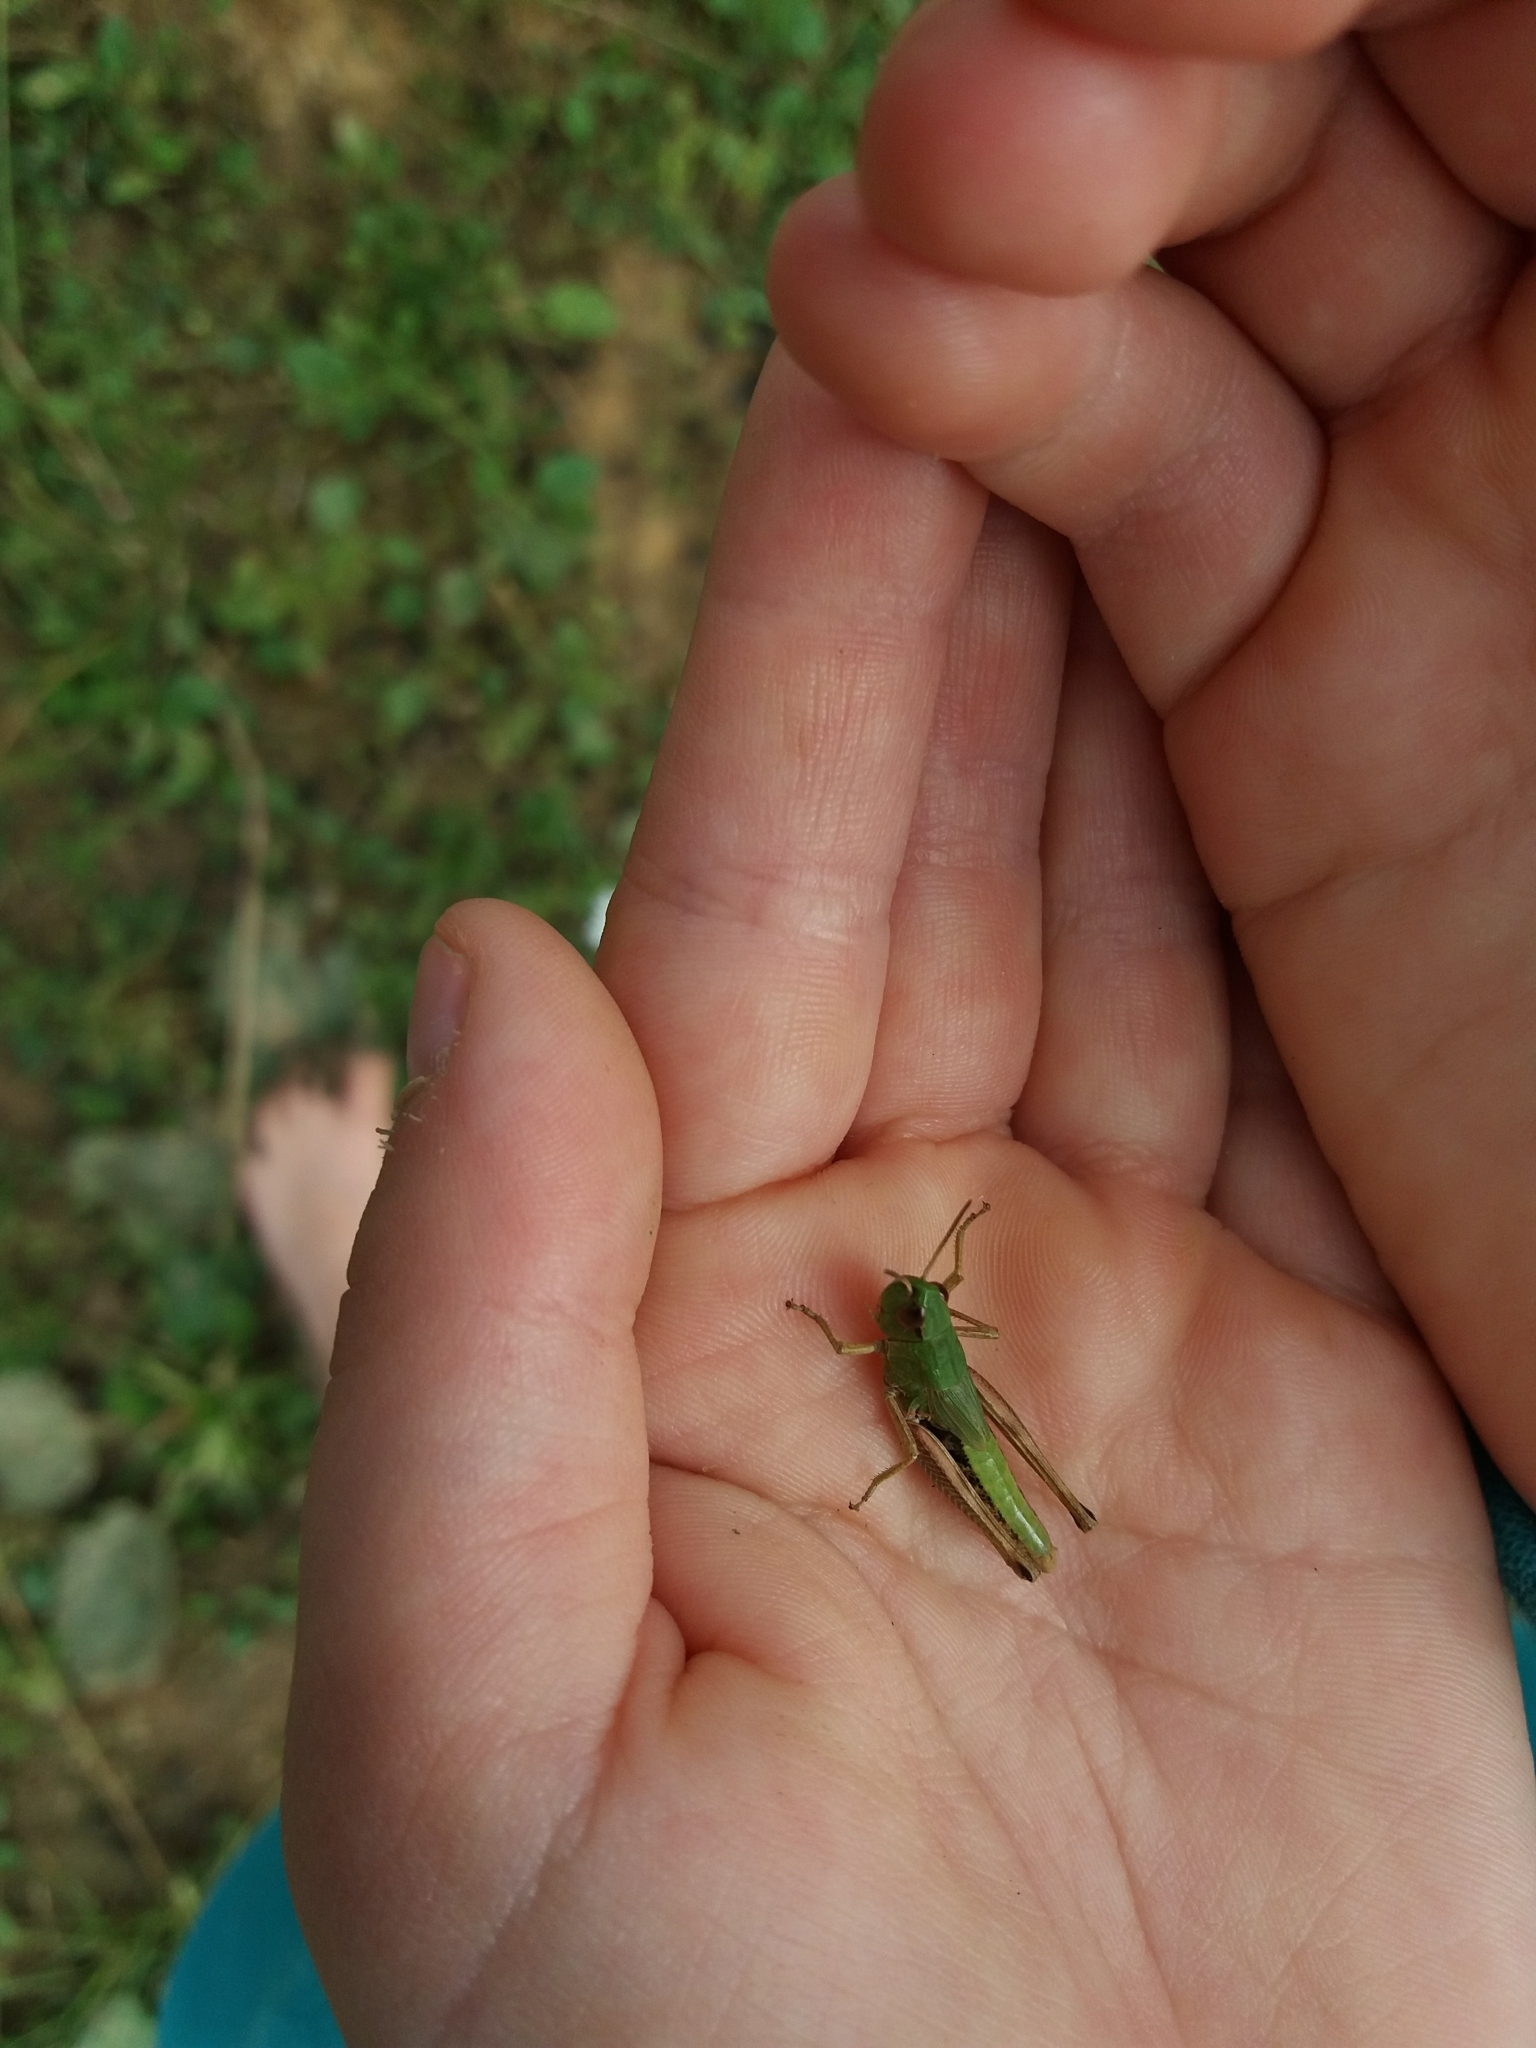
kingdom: Animalia
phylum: Arthropoda
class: Insecta
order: Orthoptera
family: Acrididae
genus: Pseudochorthippus
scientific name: Pseudochorthippus parallelus
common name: Meadow grasshopper
